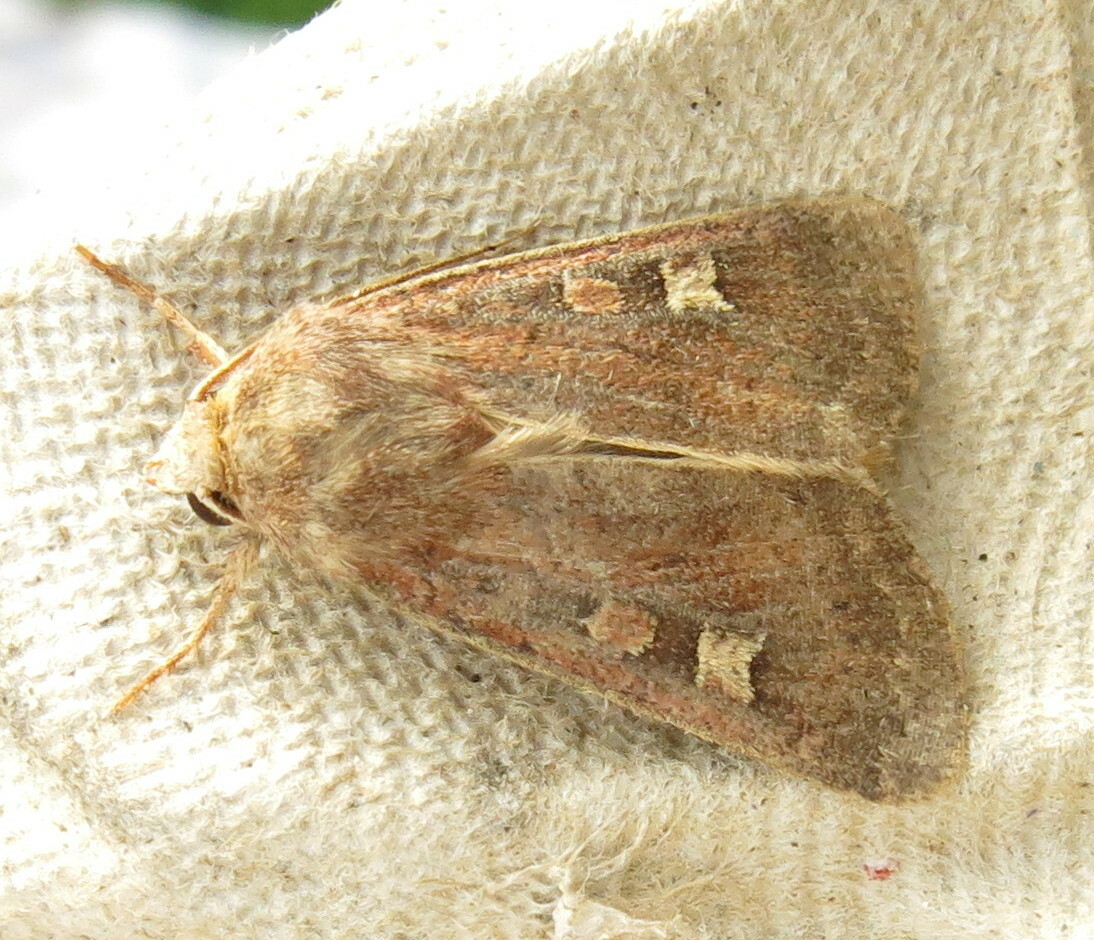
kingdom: Animalia
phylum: Arthropoda
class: Insecta
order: Lepidoptera
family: Noctuidae
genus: Xestia
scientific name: Xestia xanthographa
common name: Square-spot rustic
